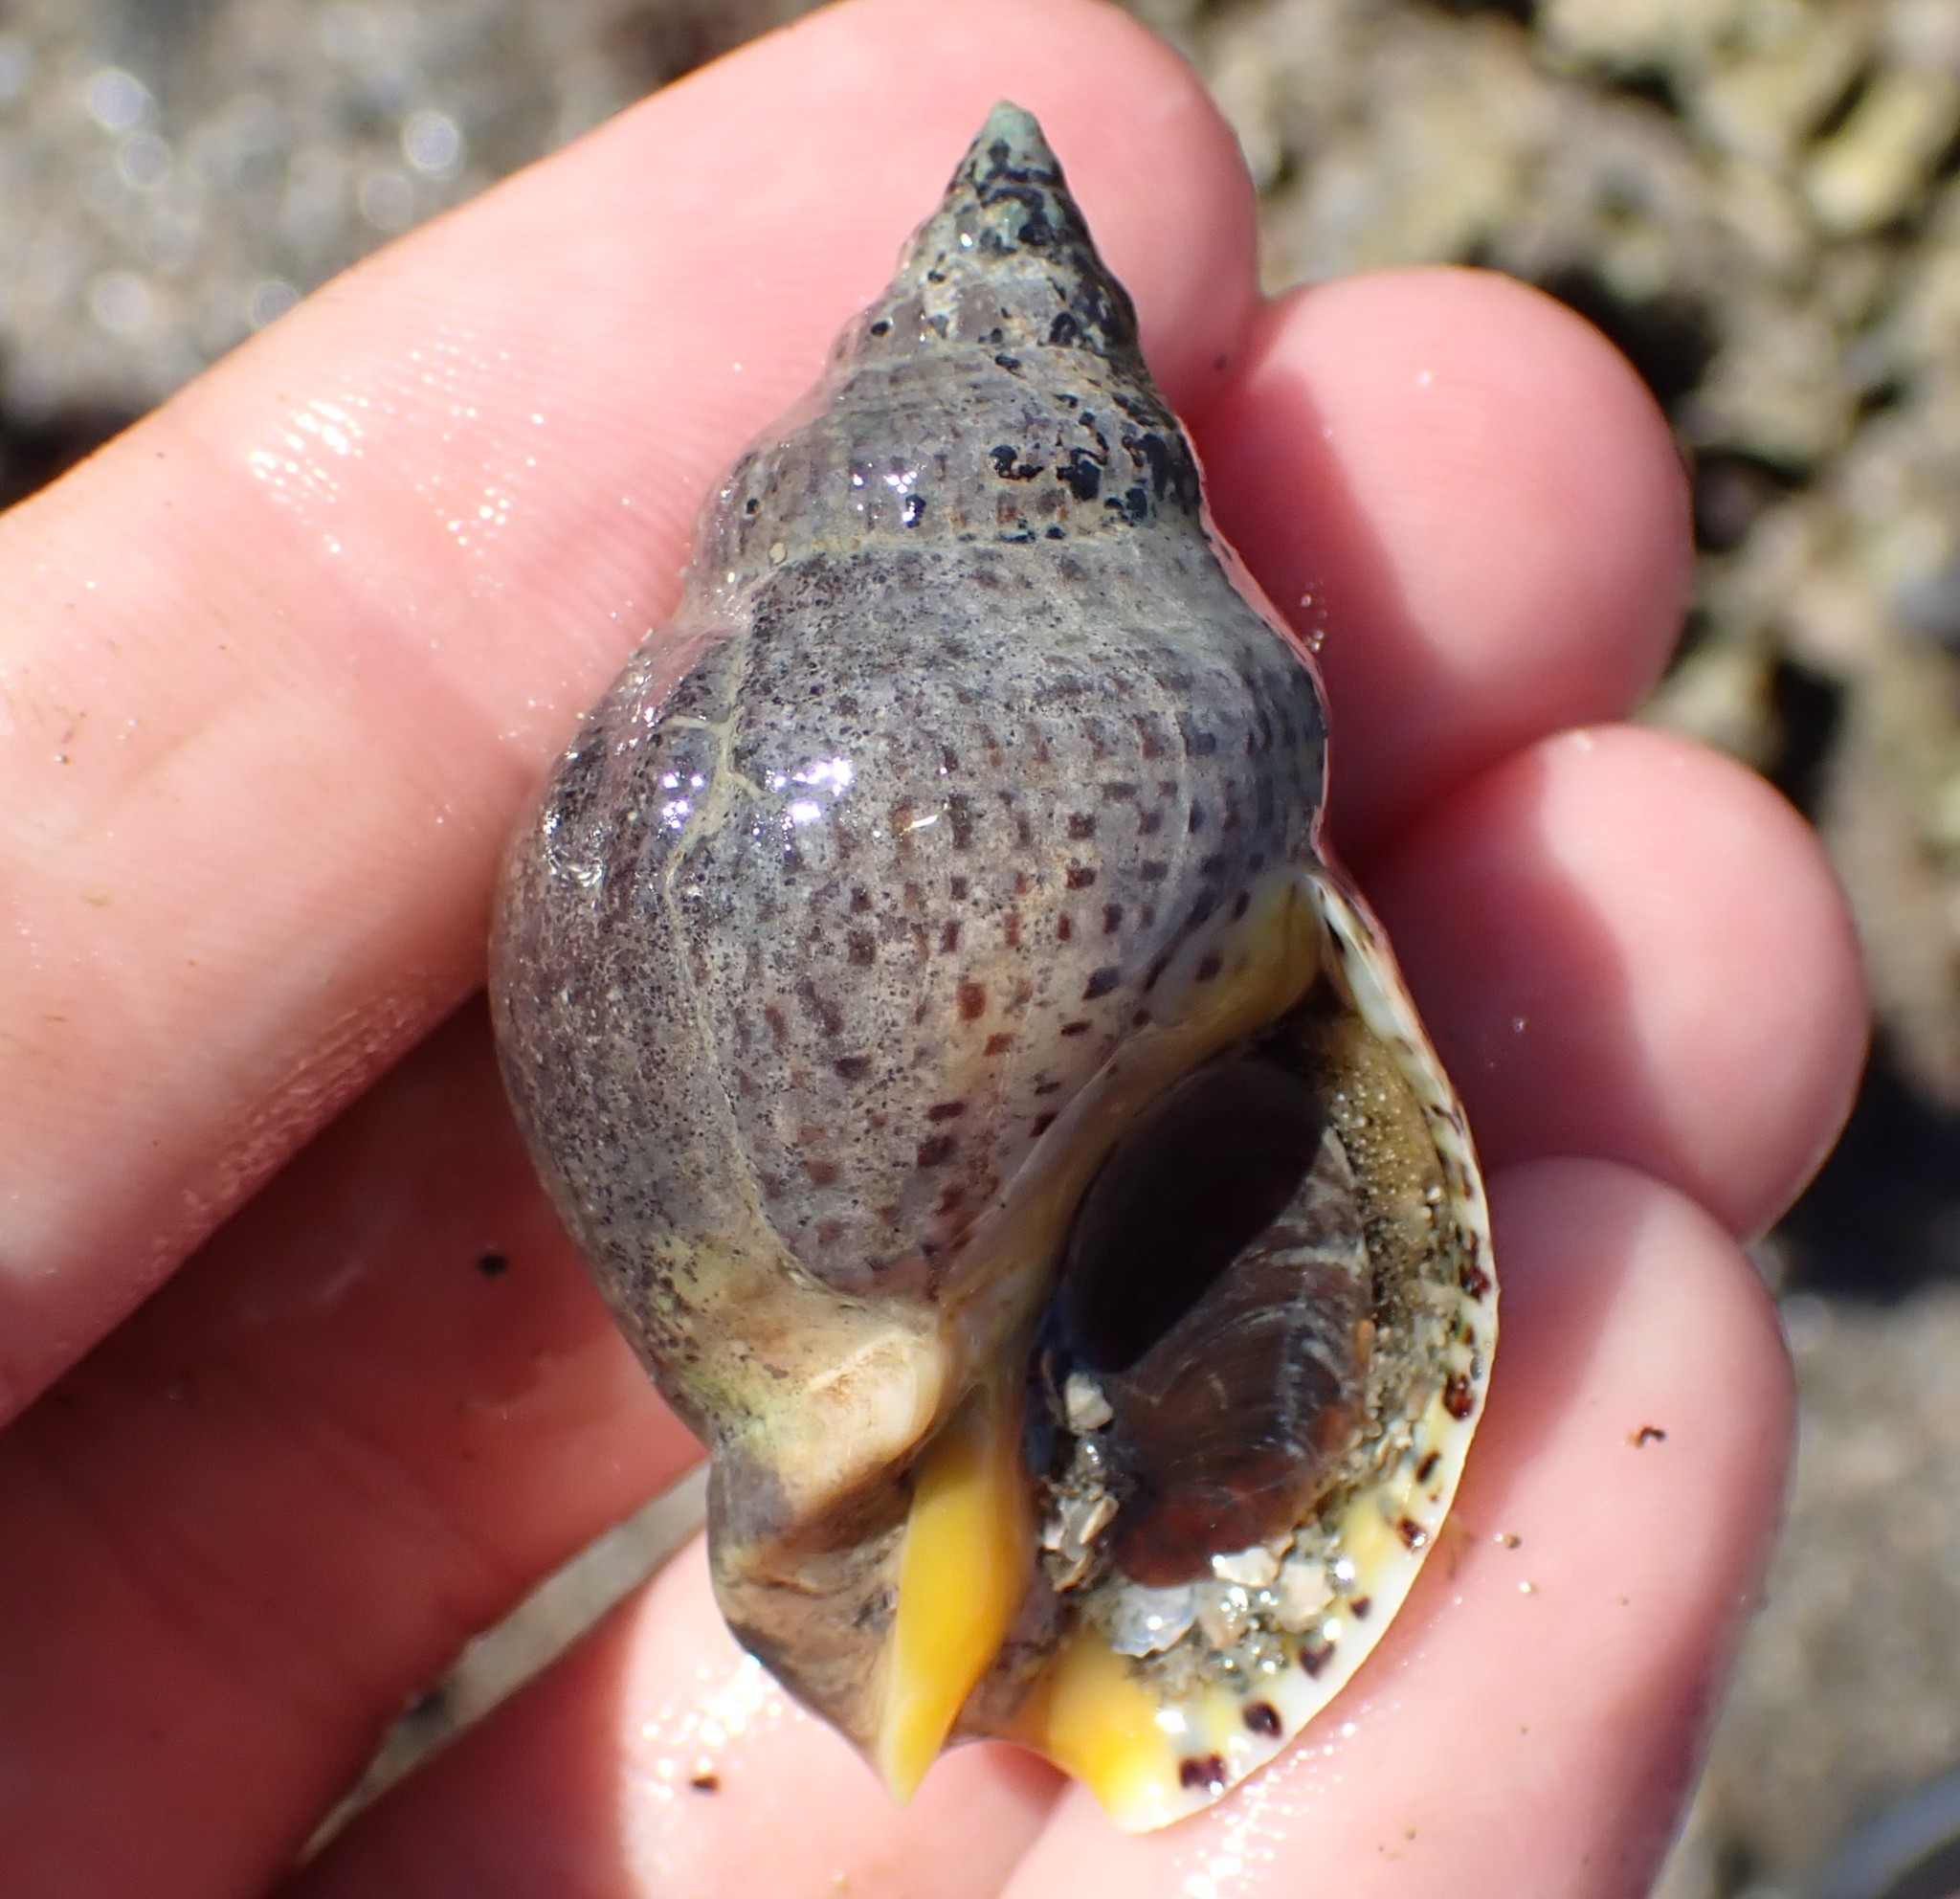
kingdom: Animalia
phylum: Mollusca
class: Gastropoda
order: Neogastropoda
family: Cominellidae
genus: Cominella
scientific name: Cominella adspersa
